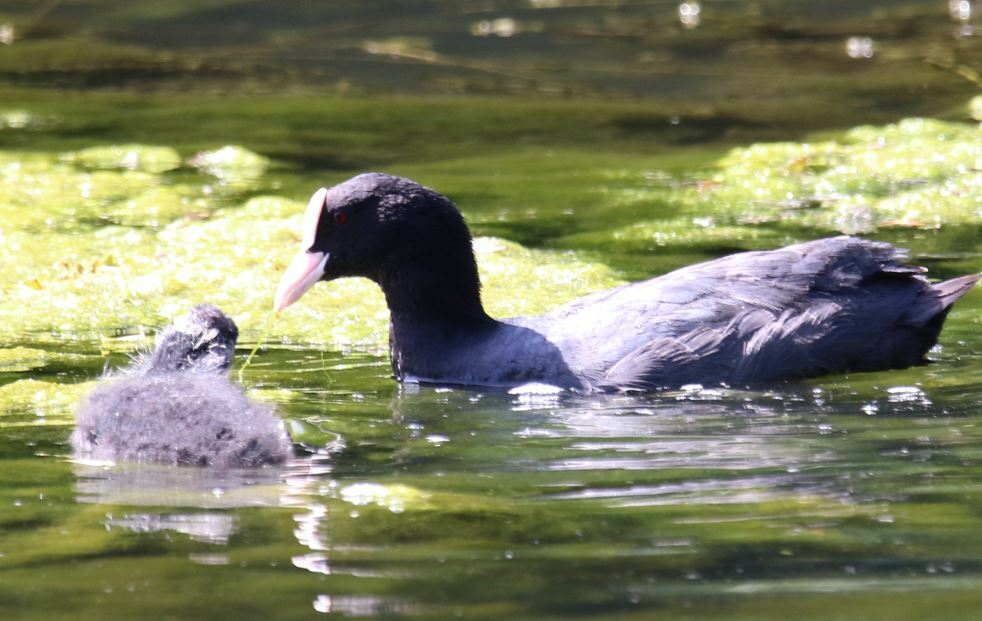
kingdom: Animalia
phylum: Chordata
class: Aves
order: Gruiformes
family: Rallidae
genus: Fulica
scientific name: Fulica atra
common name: Eurasian coot
